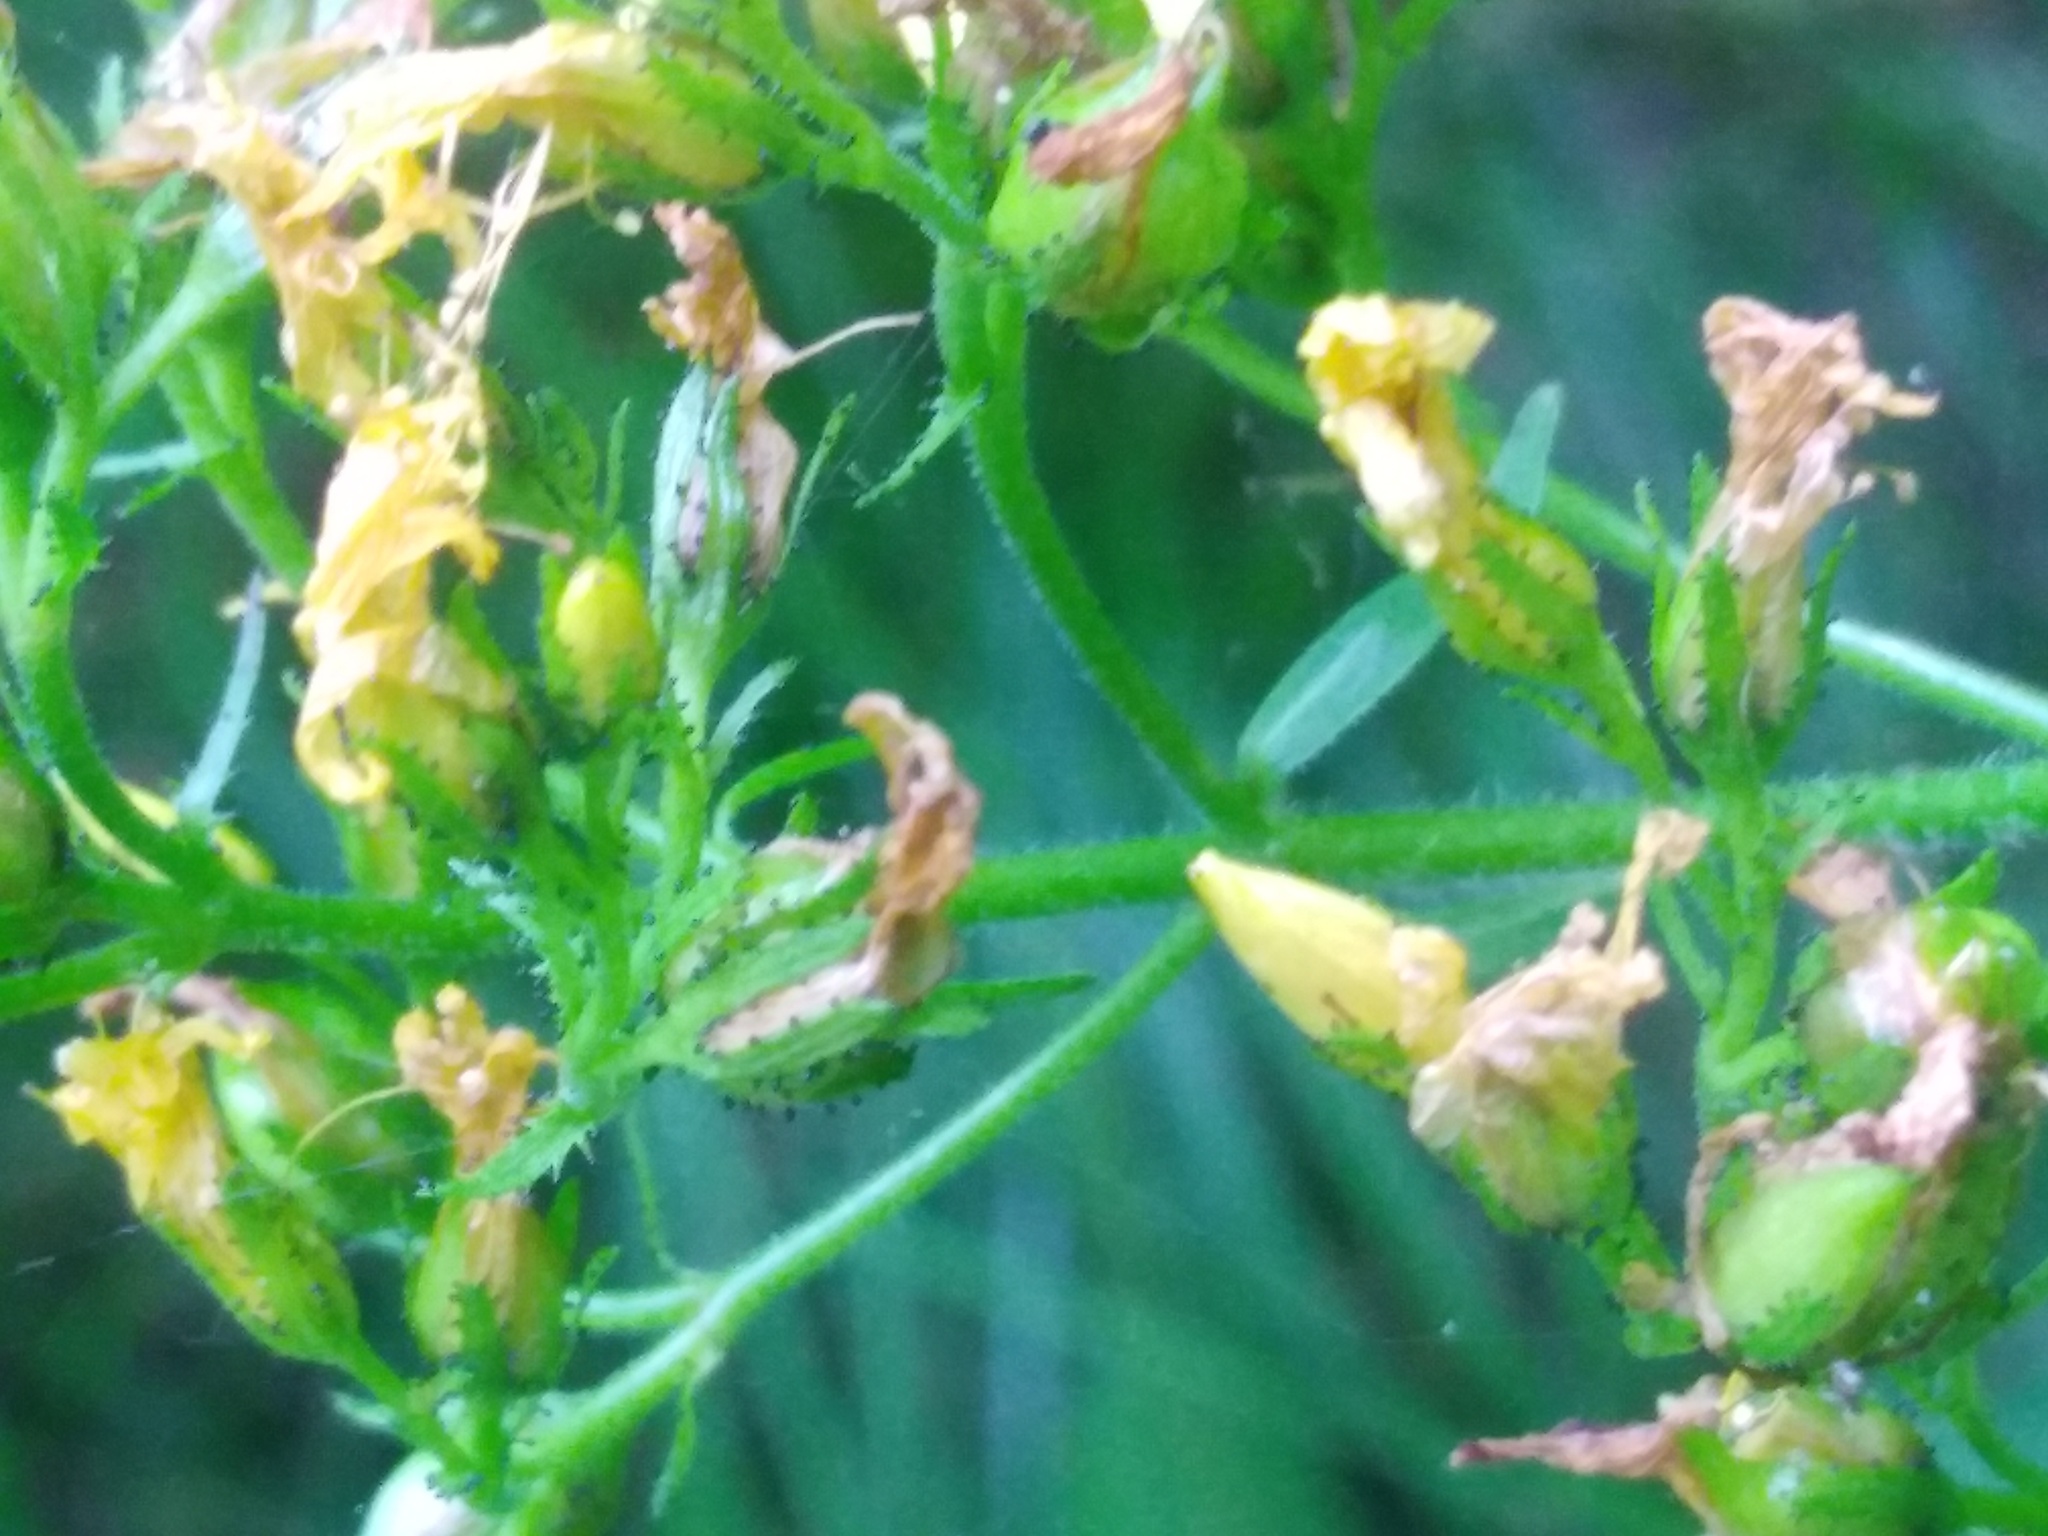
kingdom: Plantae
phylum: Tracheophyta
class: Magnoliopsida
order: Malpighiales
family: Hypericaceae
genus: Hypericum
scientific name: Hypericum hirsutum
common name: Hairy st. john's-wort
